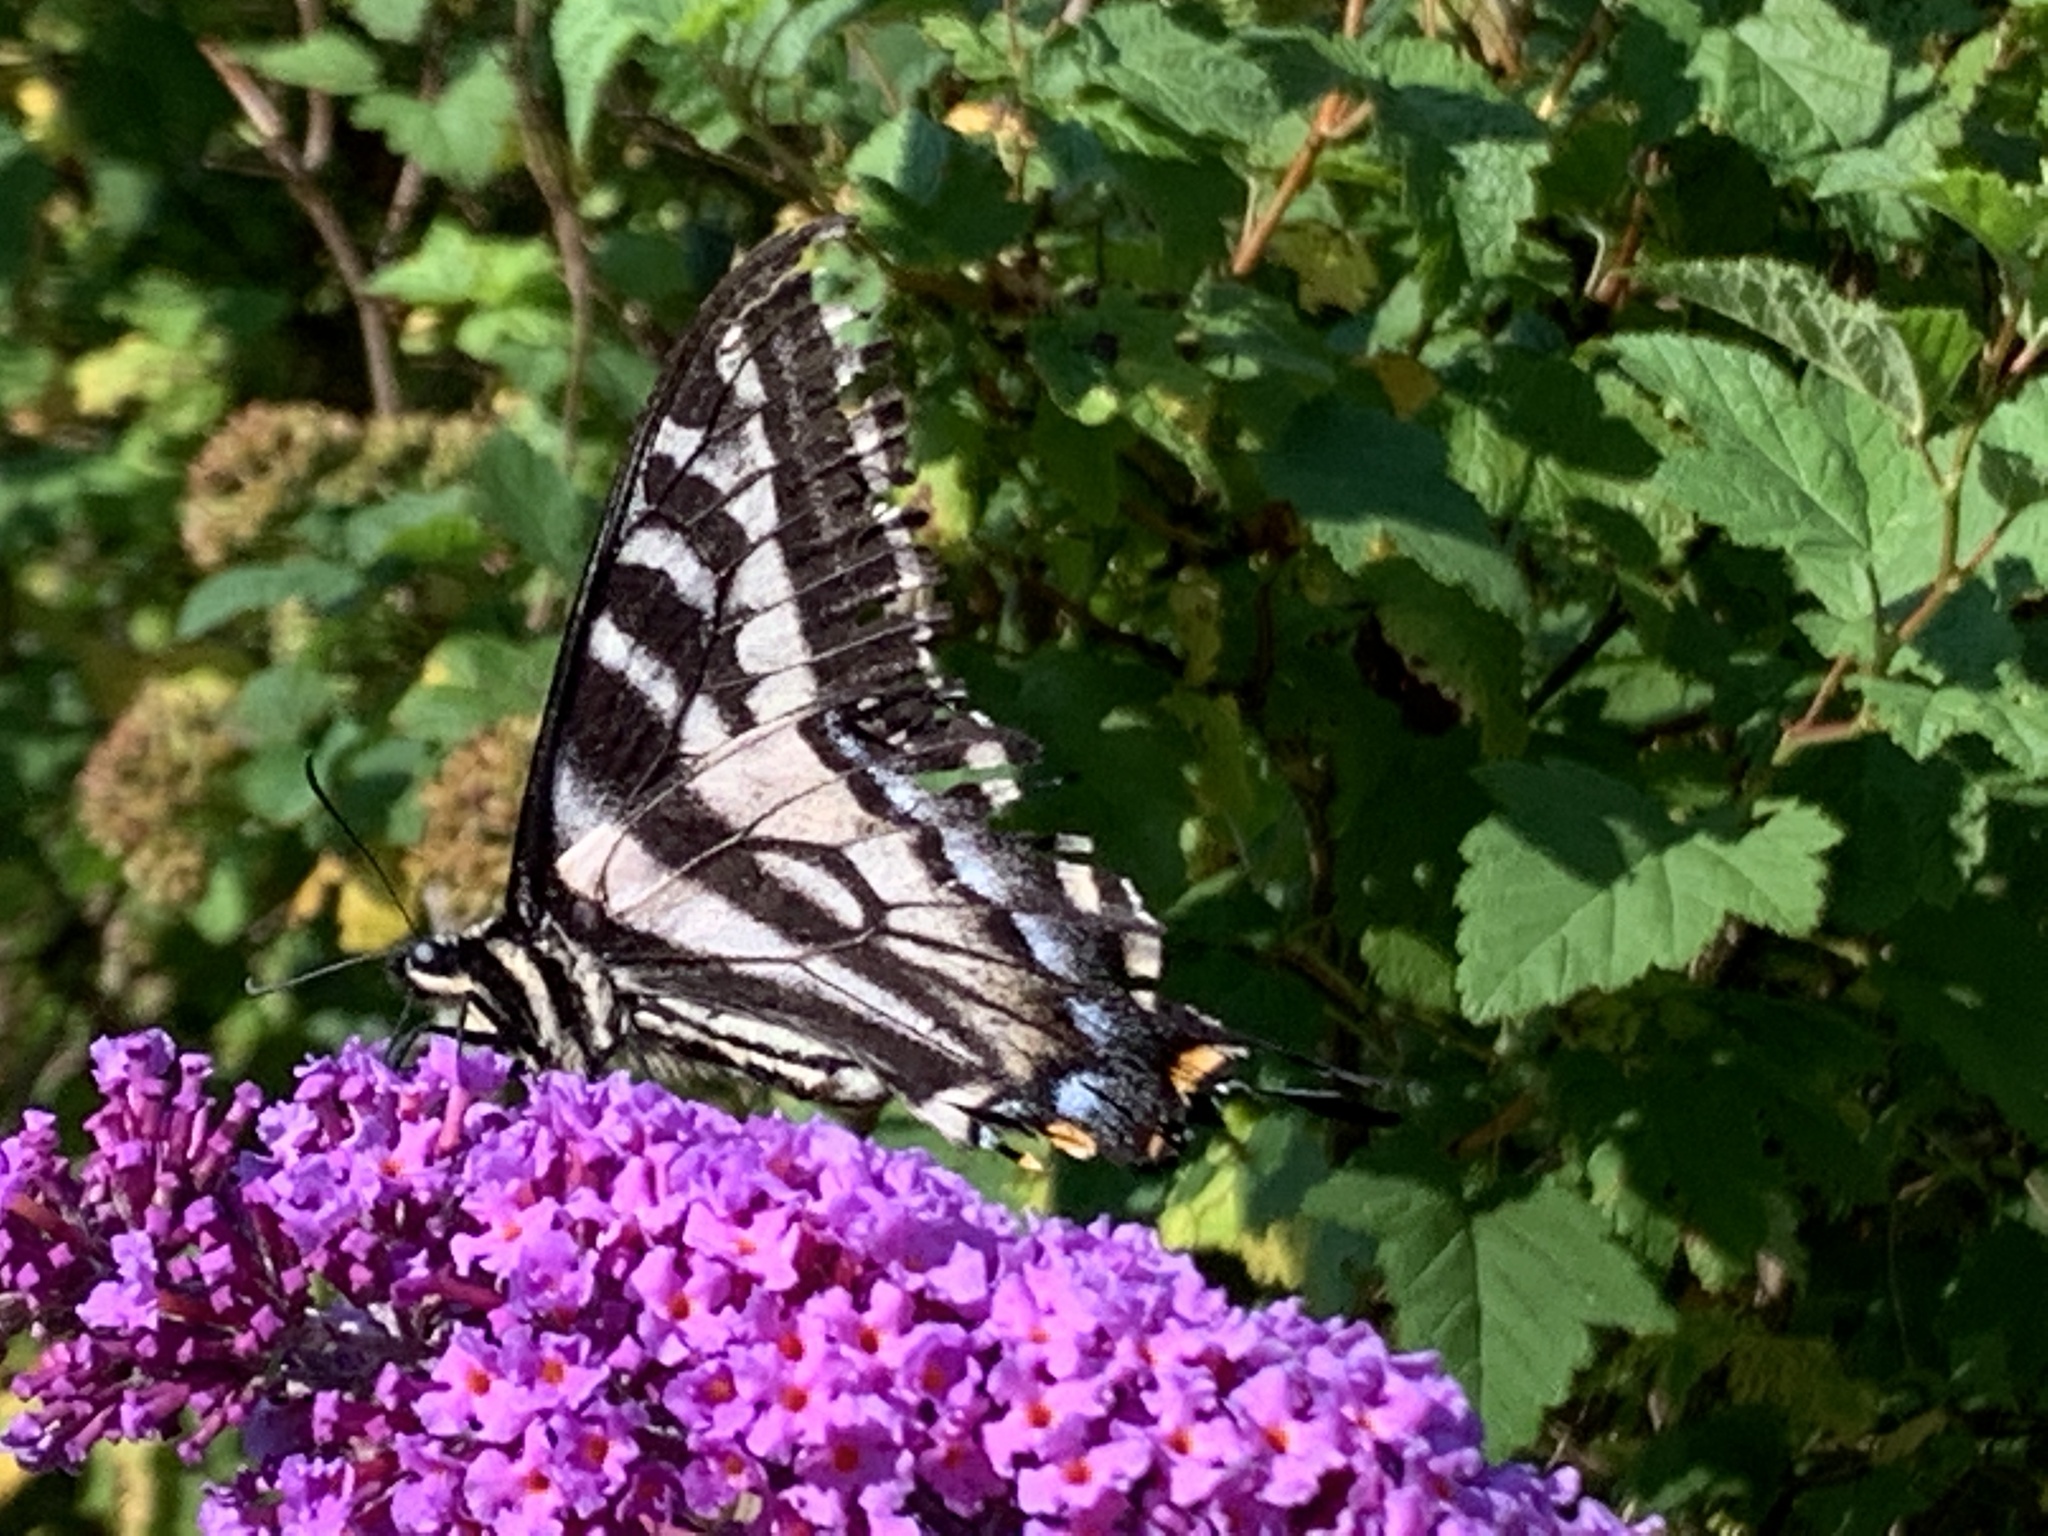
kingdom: Animalia
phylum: Arthropoda
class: Insecta
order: Lepidoptera
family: Papilionidae
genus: Papilio
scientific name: Papilio eurymedon
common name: Pale tiger swallowtail
